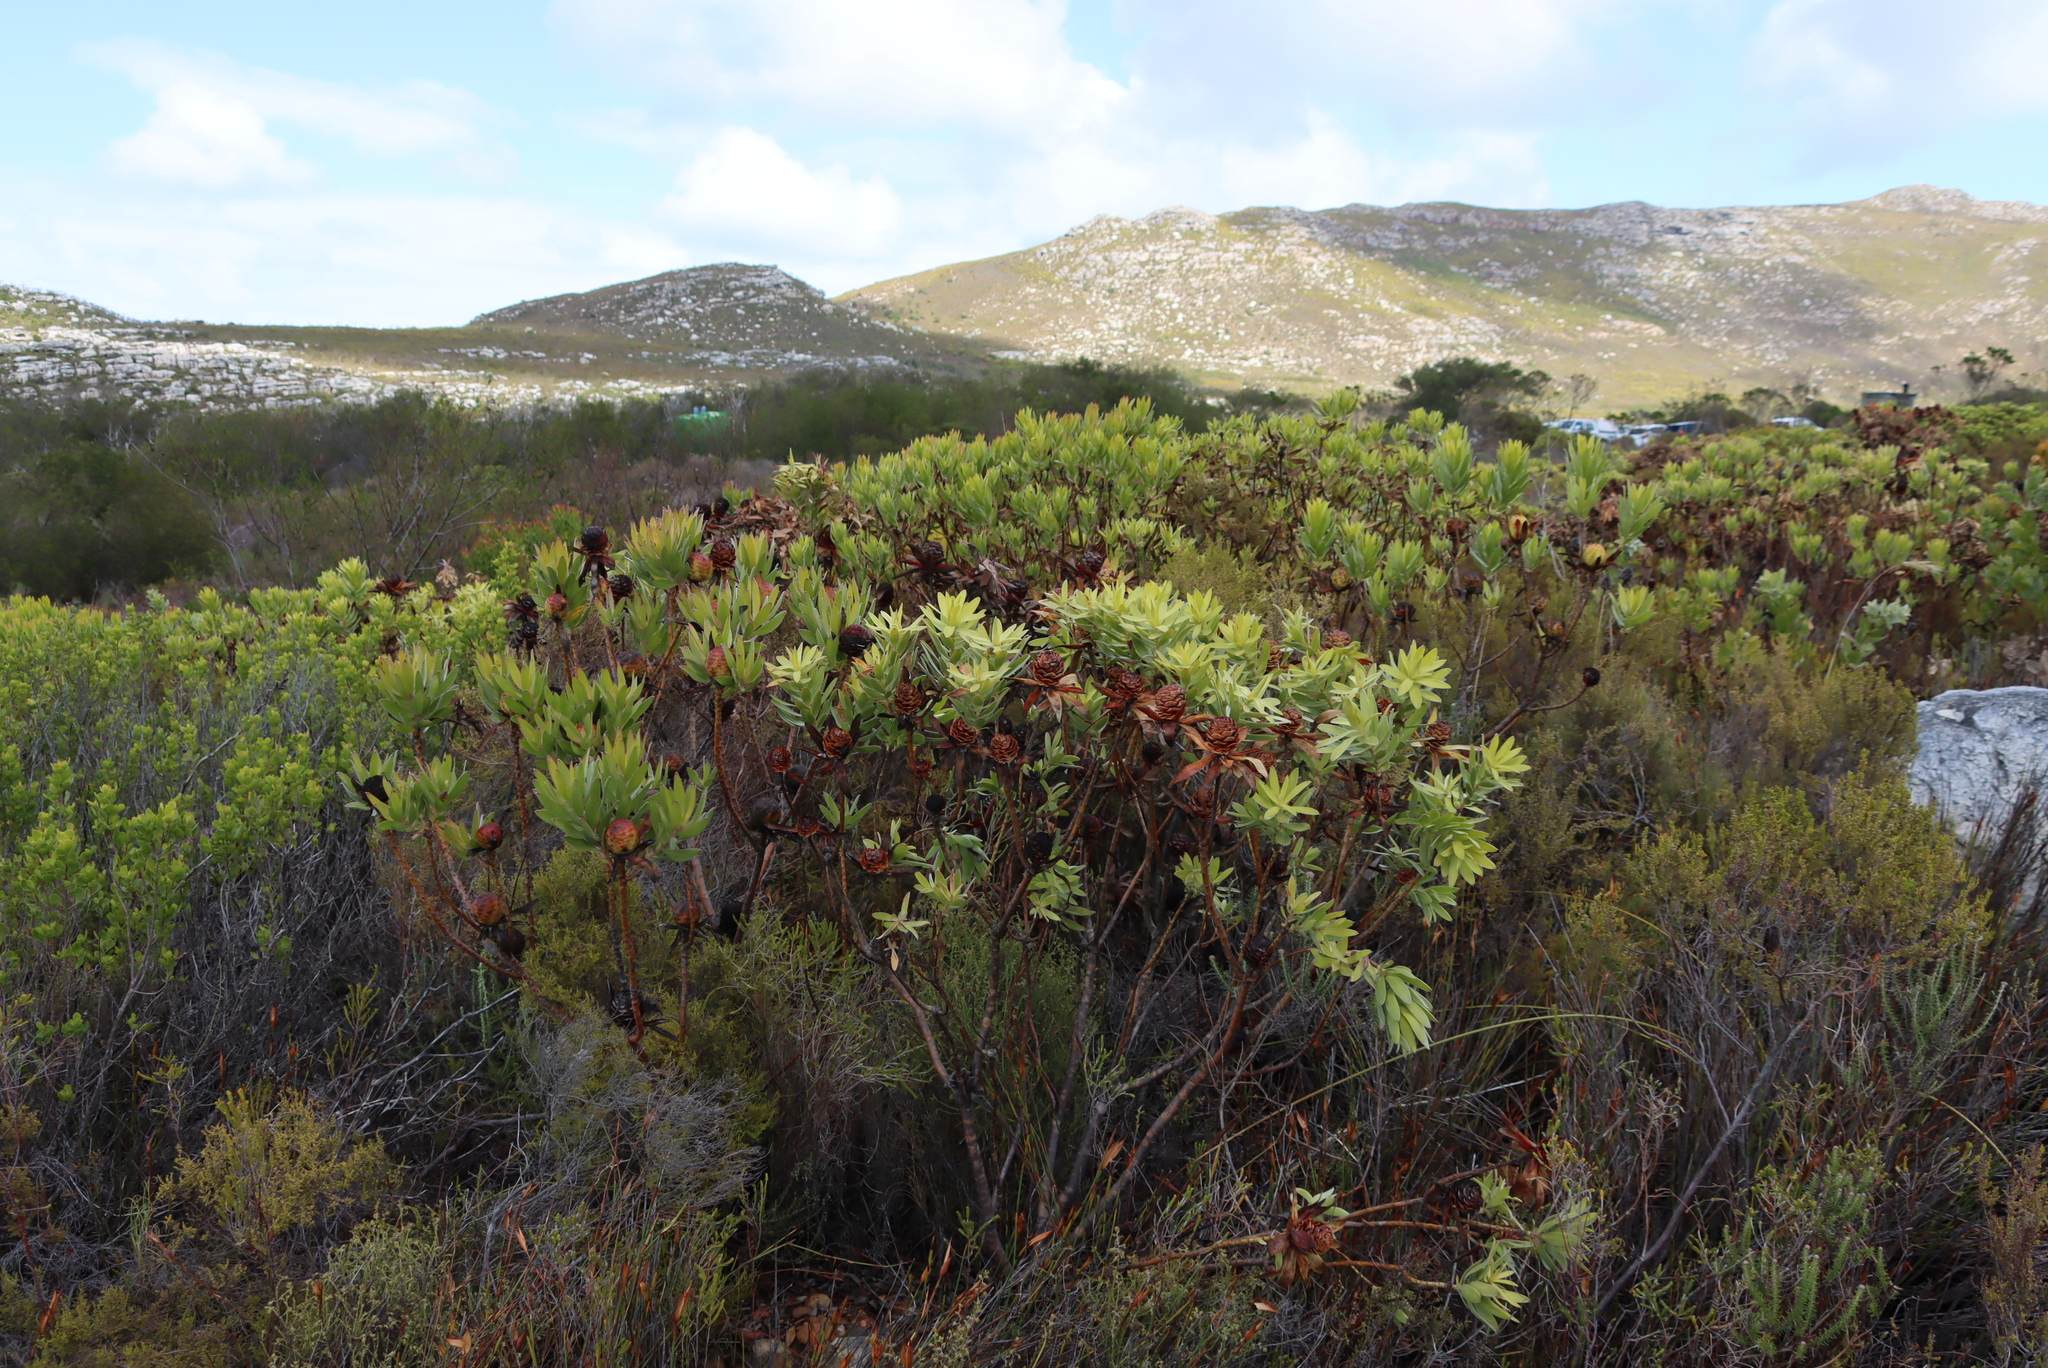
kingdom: Plantae
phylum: Tracheophyta
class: Magnoliopsida
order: Proteales
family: Proteaceae
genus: Leucadendron
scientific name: Leucadendron laureolum
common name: Golden sunshinebush
